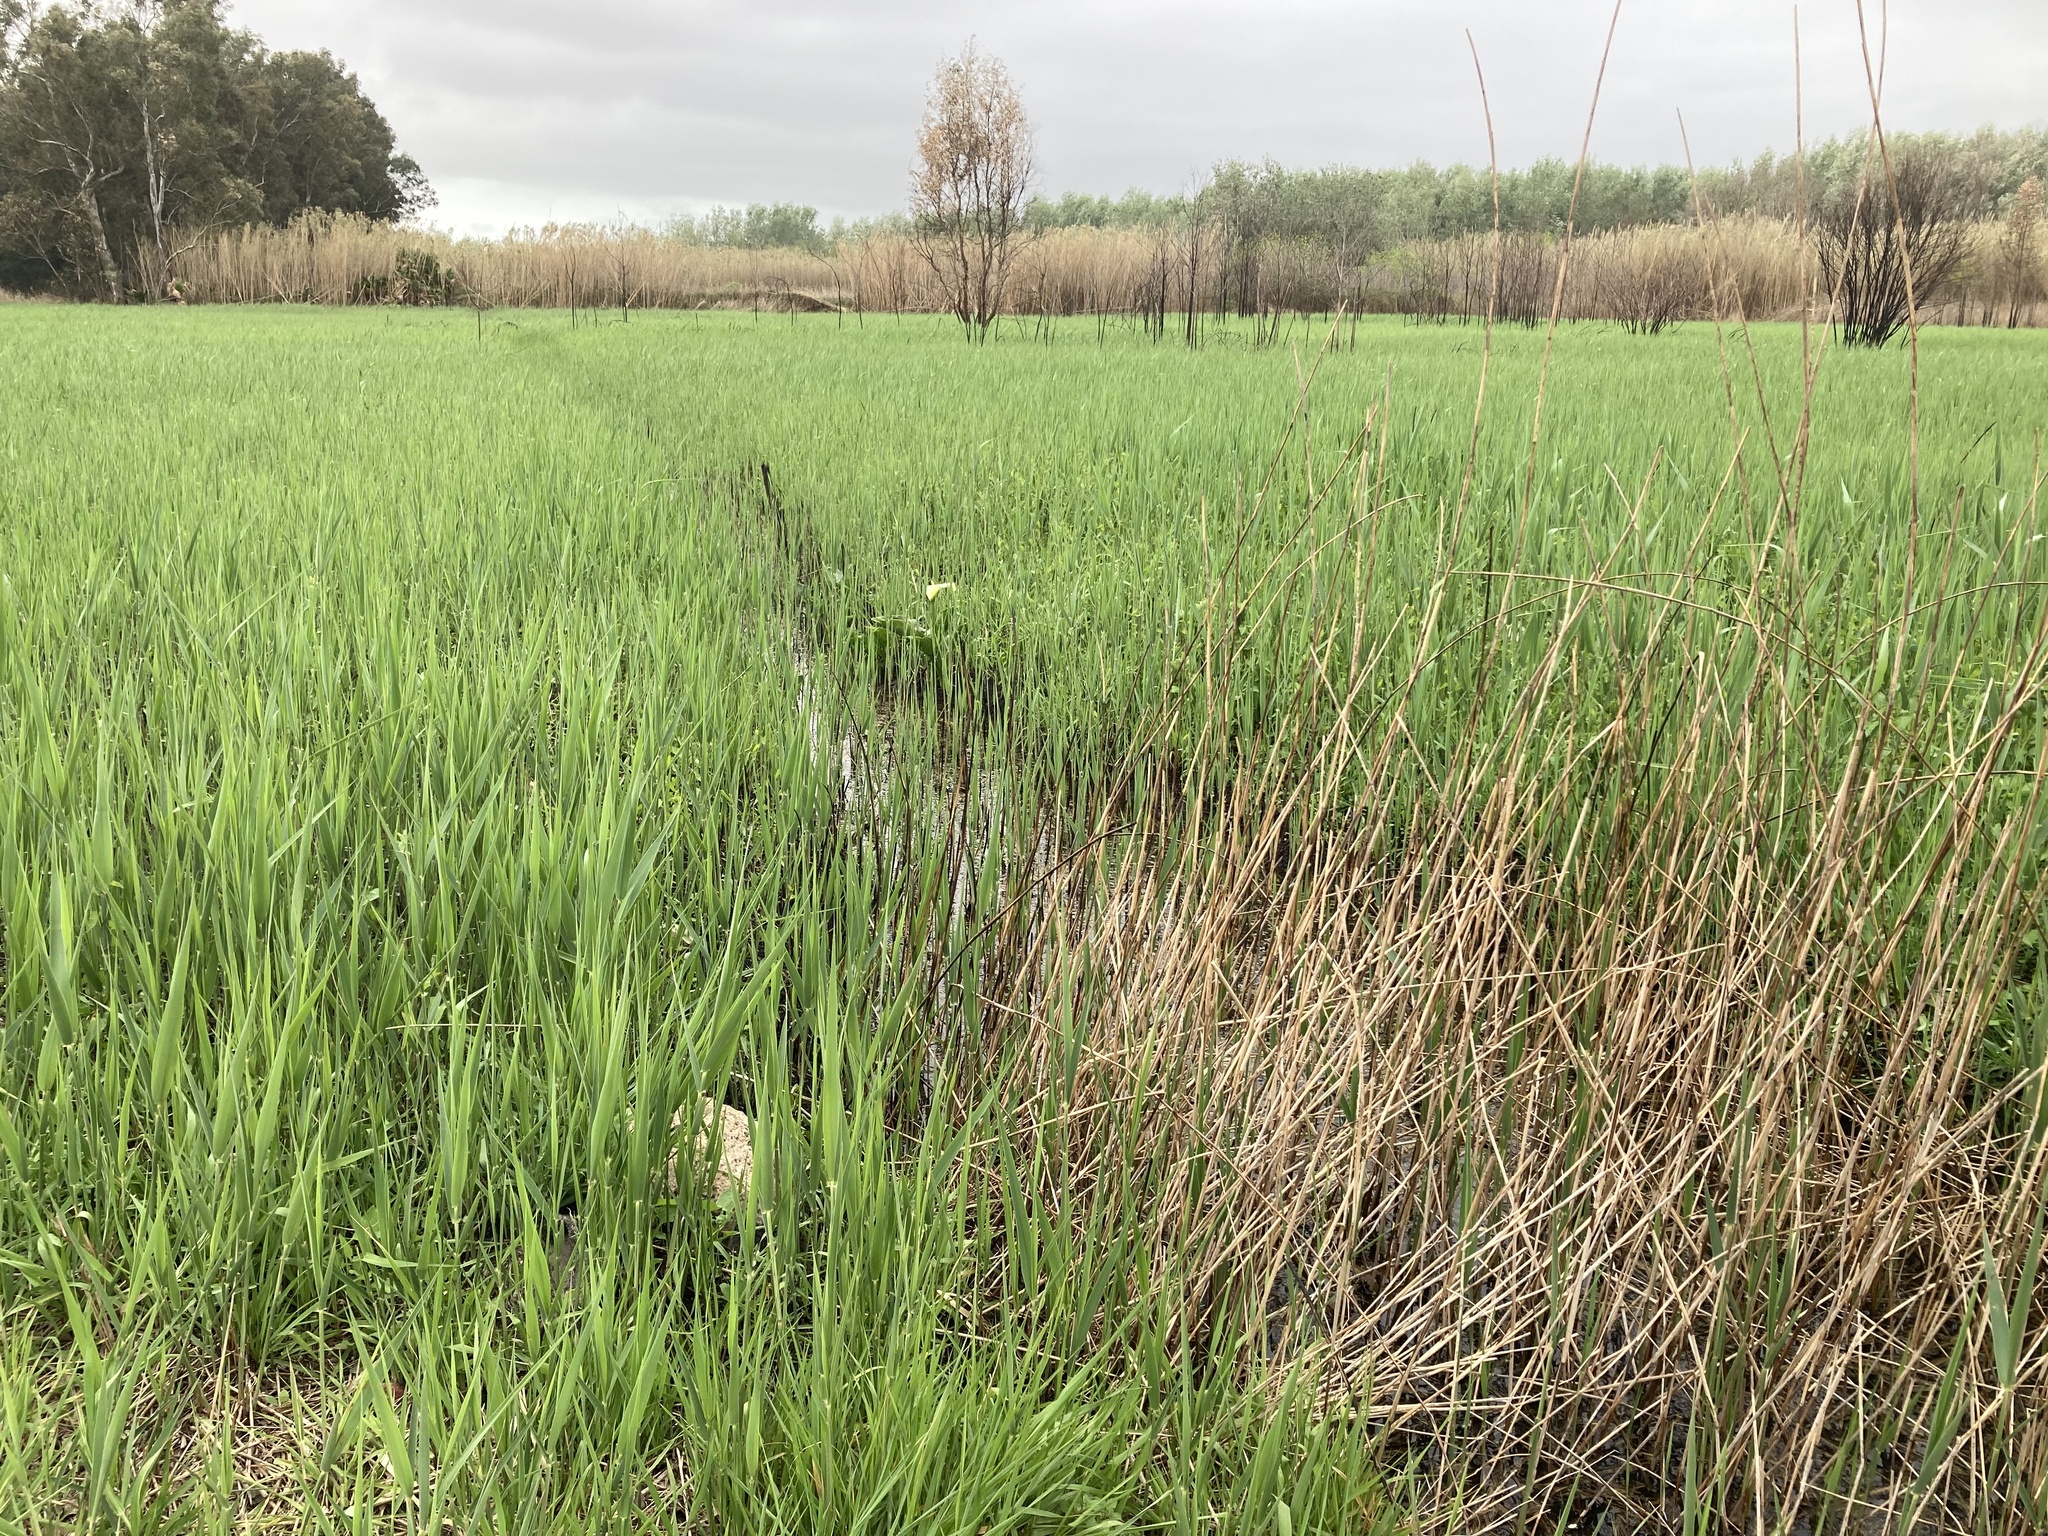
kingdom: Plantae
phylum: Tracheophyta
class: Liliopsida
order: Alismatales
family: Araceae
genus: Zantedeschia
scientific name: Zantedeschia aethiopica
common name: Altar-lily
